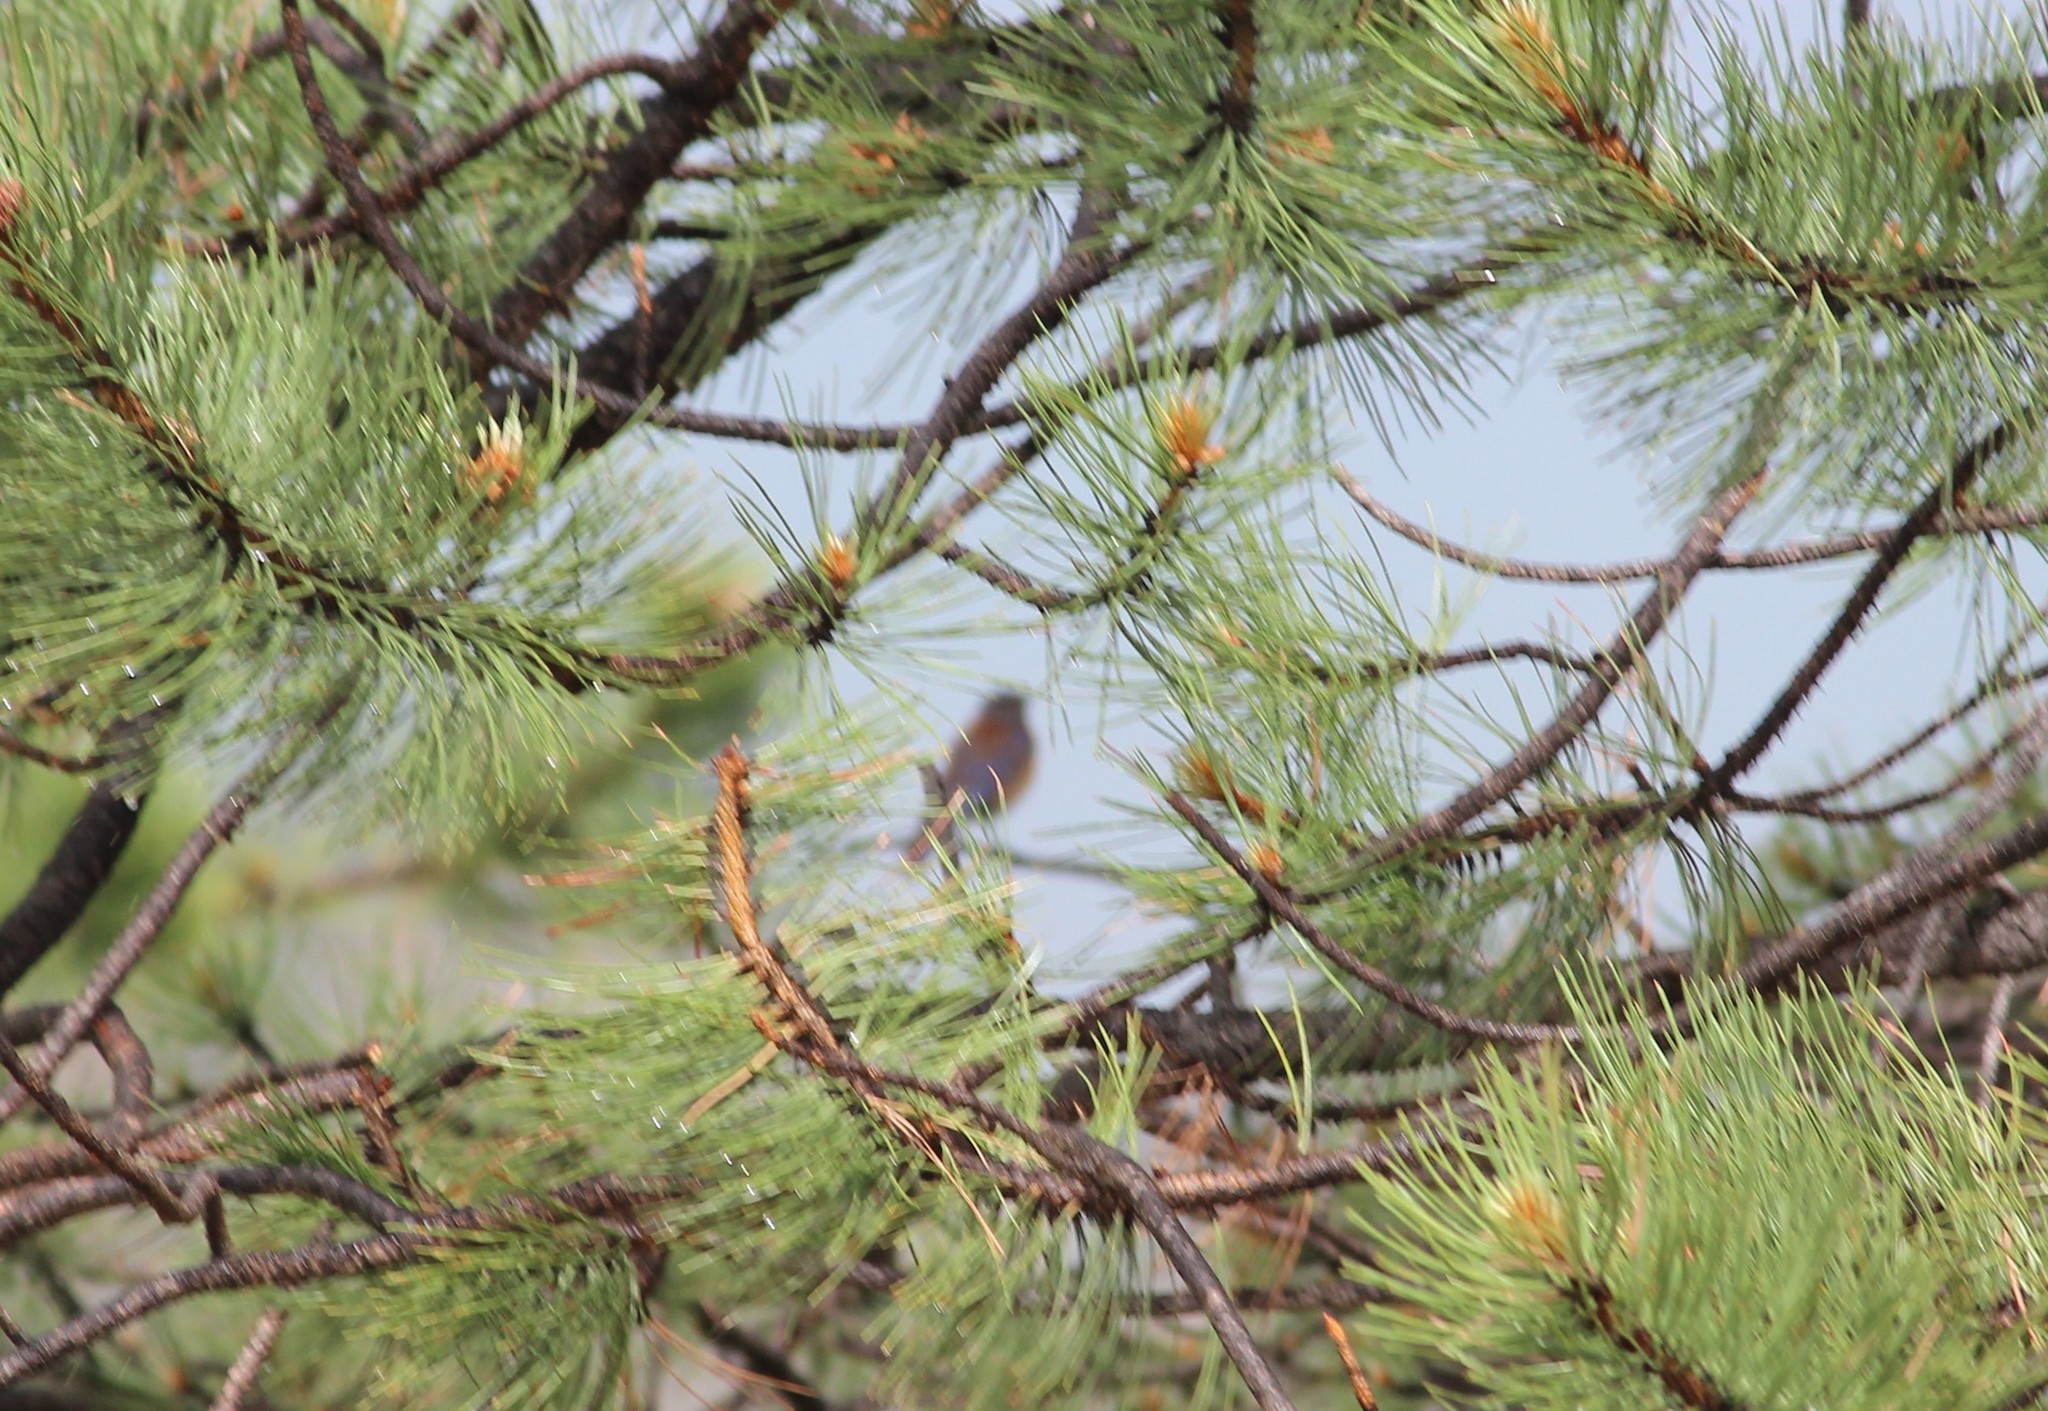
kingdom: Animalia
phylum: Chordata
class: Aves
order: Passeriformes
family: Turdidae
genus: Sialia
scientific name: Sialia mexicana
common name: Western bluebird
